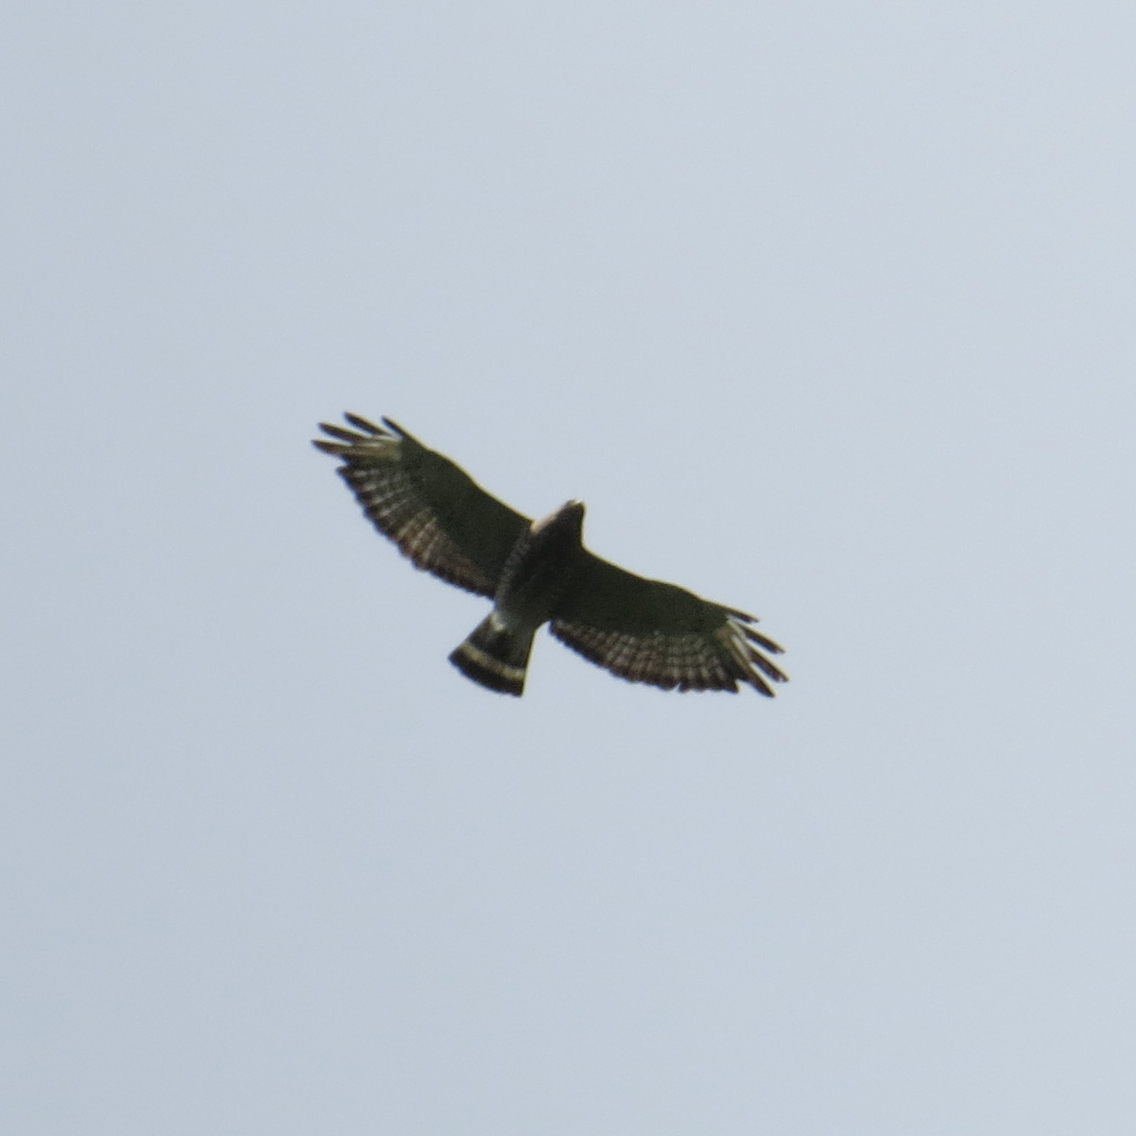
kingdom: Animalia
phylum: Chordata
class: Aves
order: Accipitriformes
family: Accipitridae
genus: Buteo
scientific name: Buteo platypterus
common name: Broad-winged hawk
